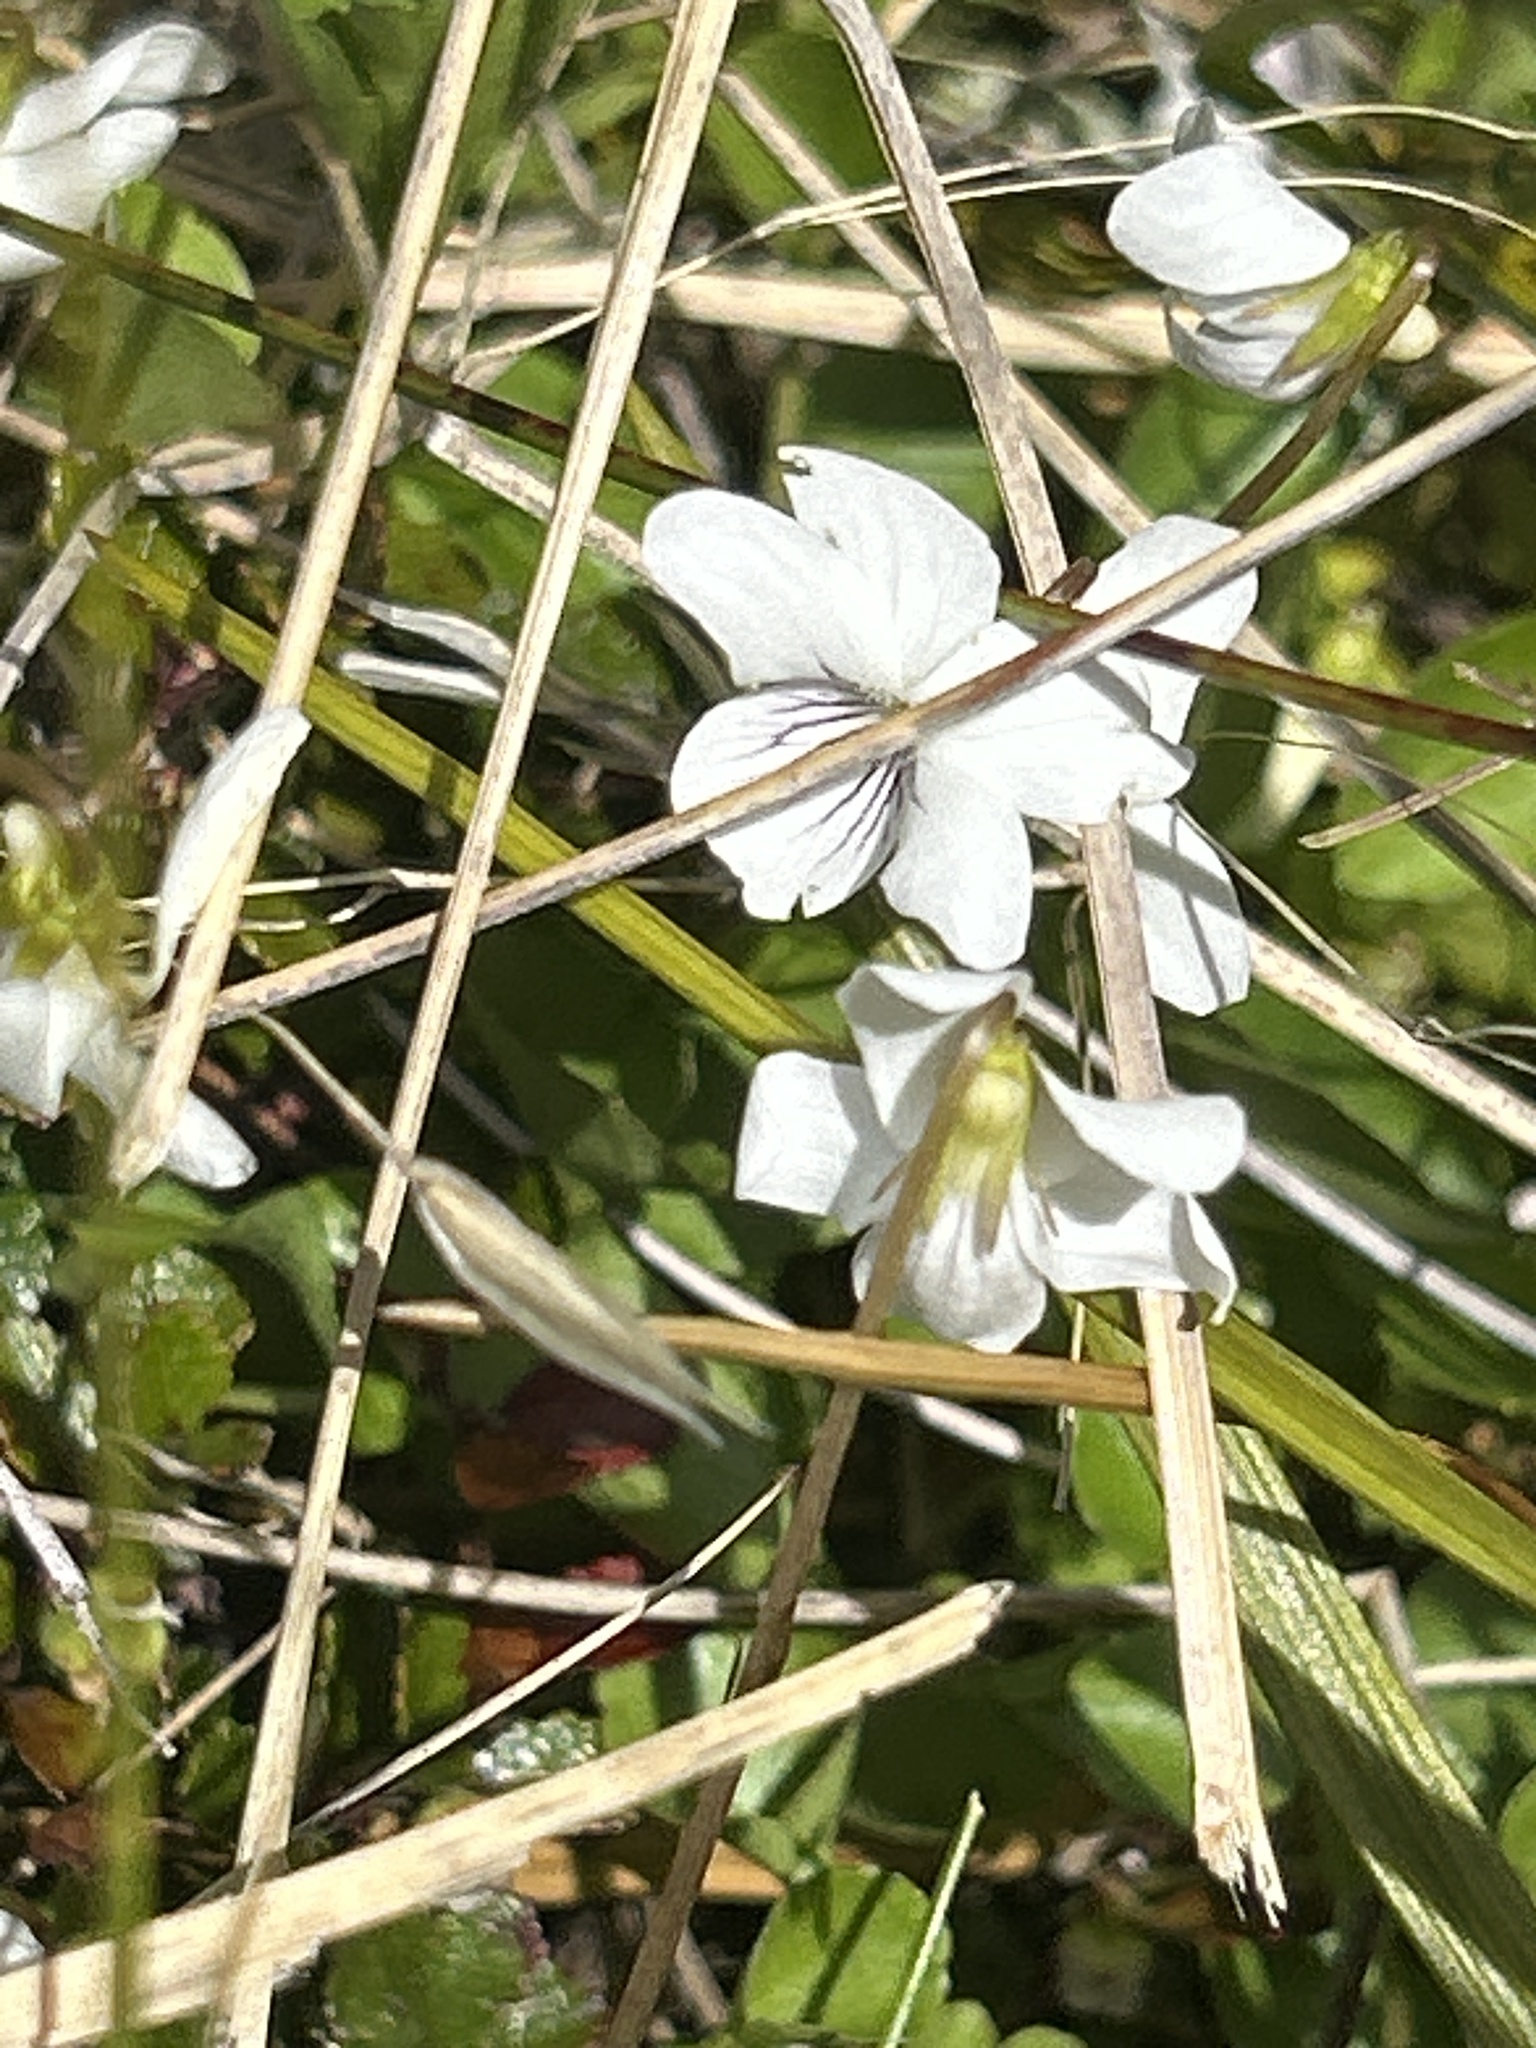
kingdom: Plantae
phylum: Tracheophyta
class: Magnoliopsida
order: Malpighiales
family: Violaceae
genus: Viola
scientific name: Viola cunninghamii
